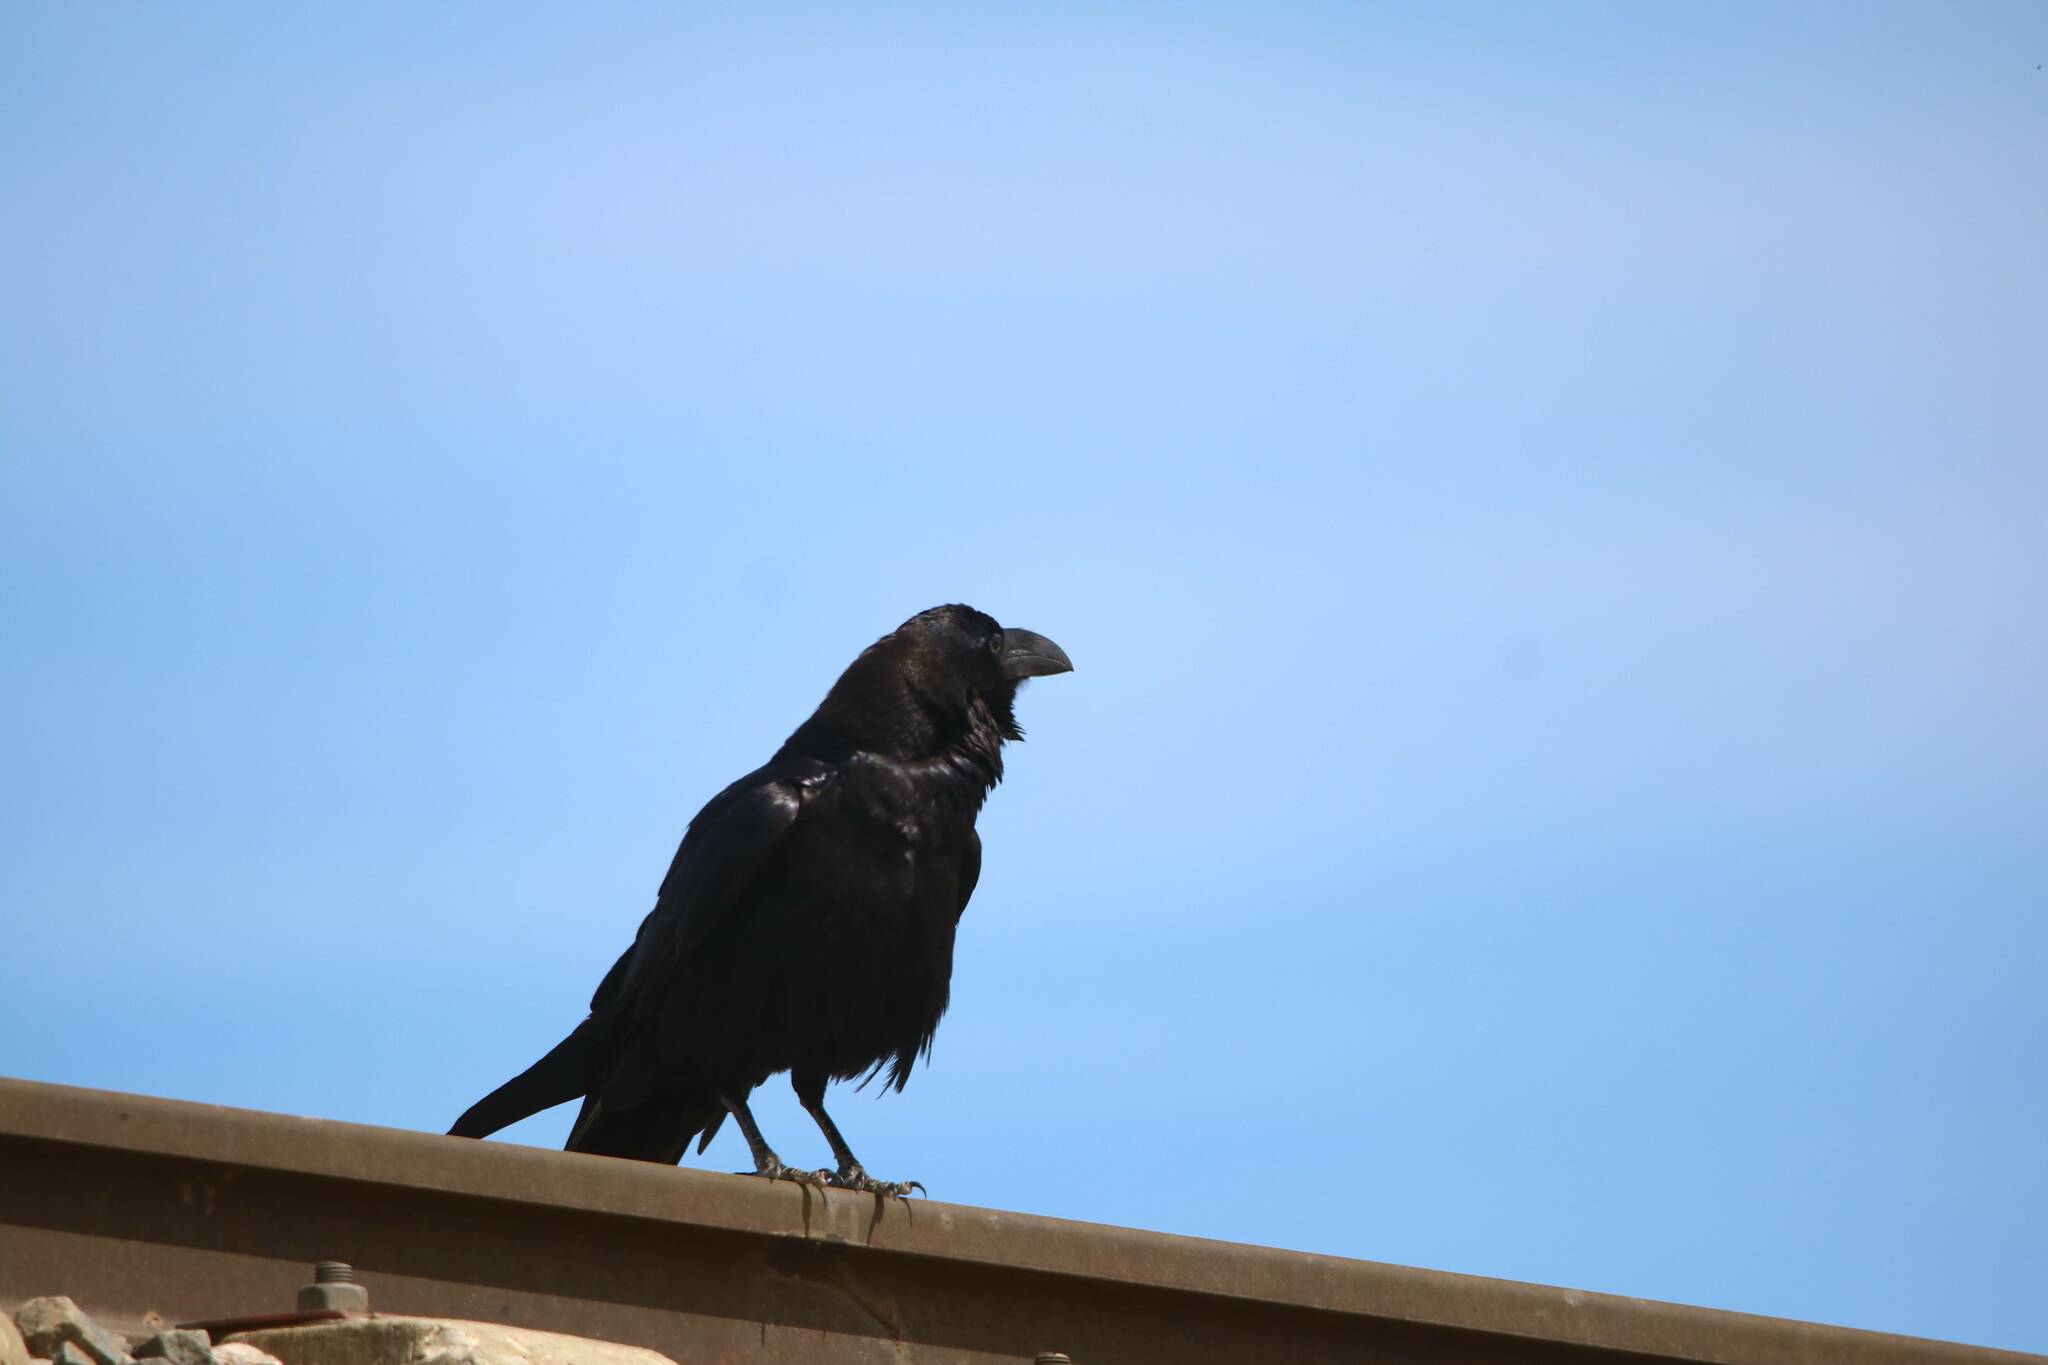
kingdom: Animalia
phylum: Chordata
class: Aves
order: Passeriformes
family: Corvidae
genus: Corvus
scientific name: Corvus corax
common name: Common raven
